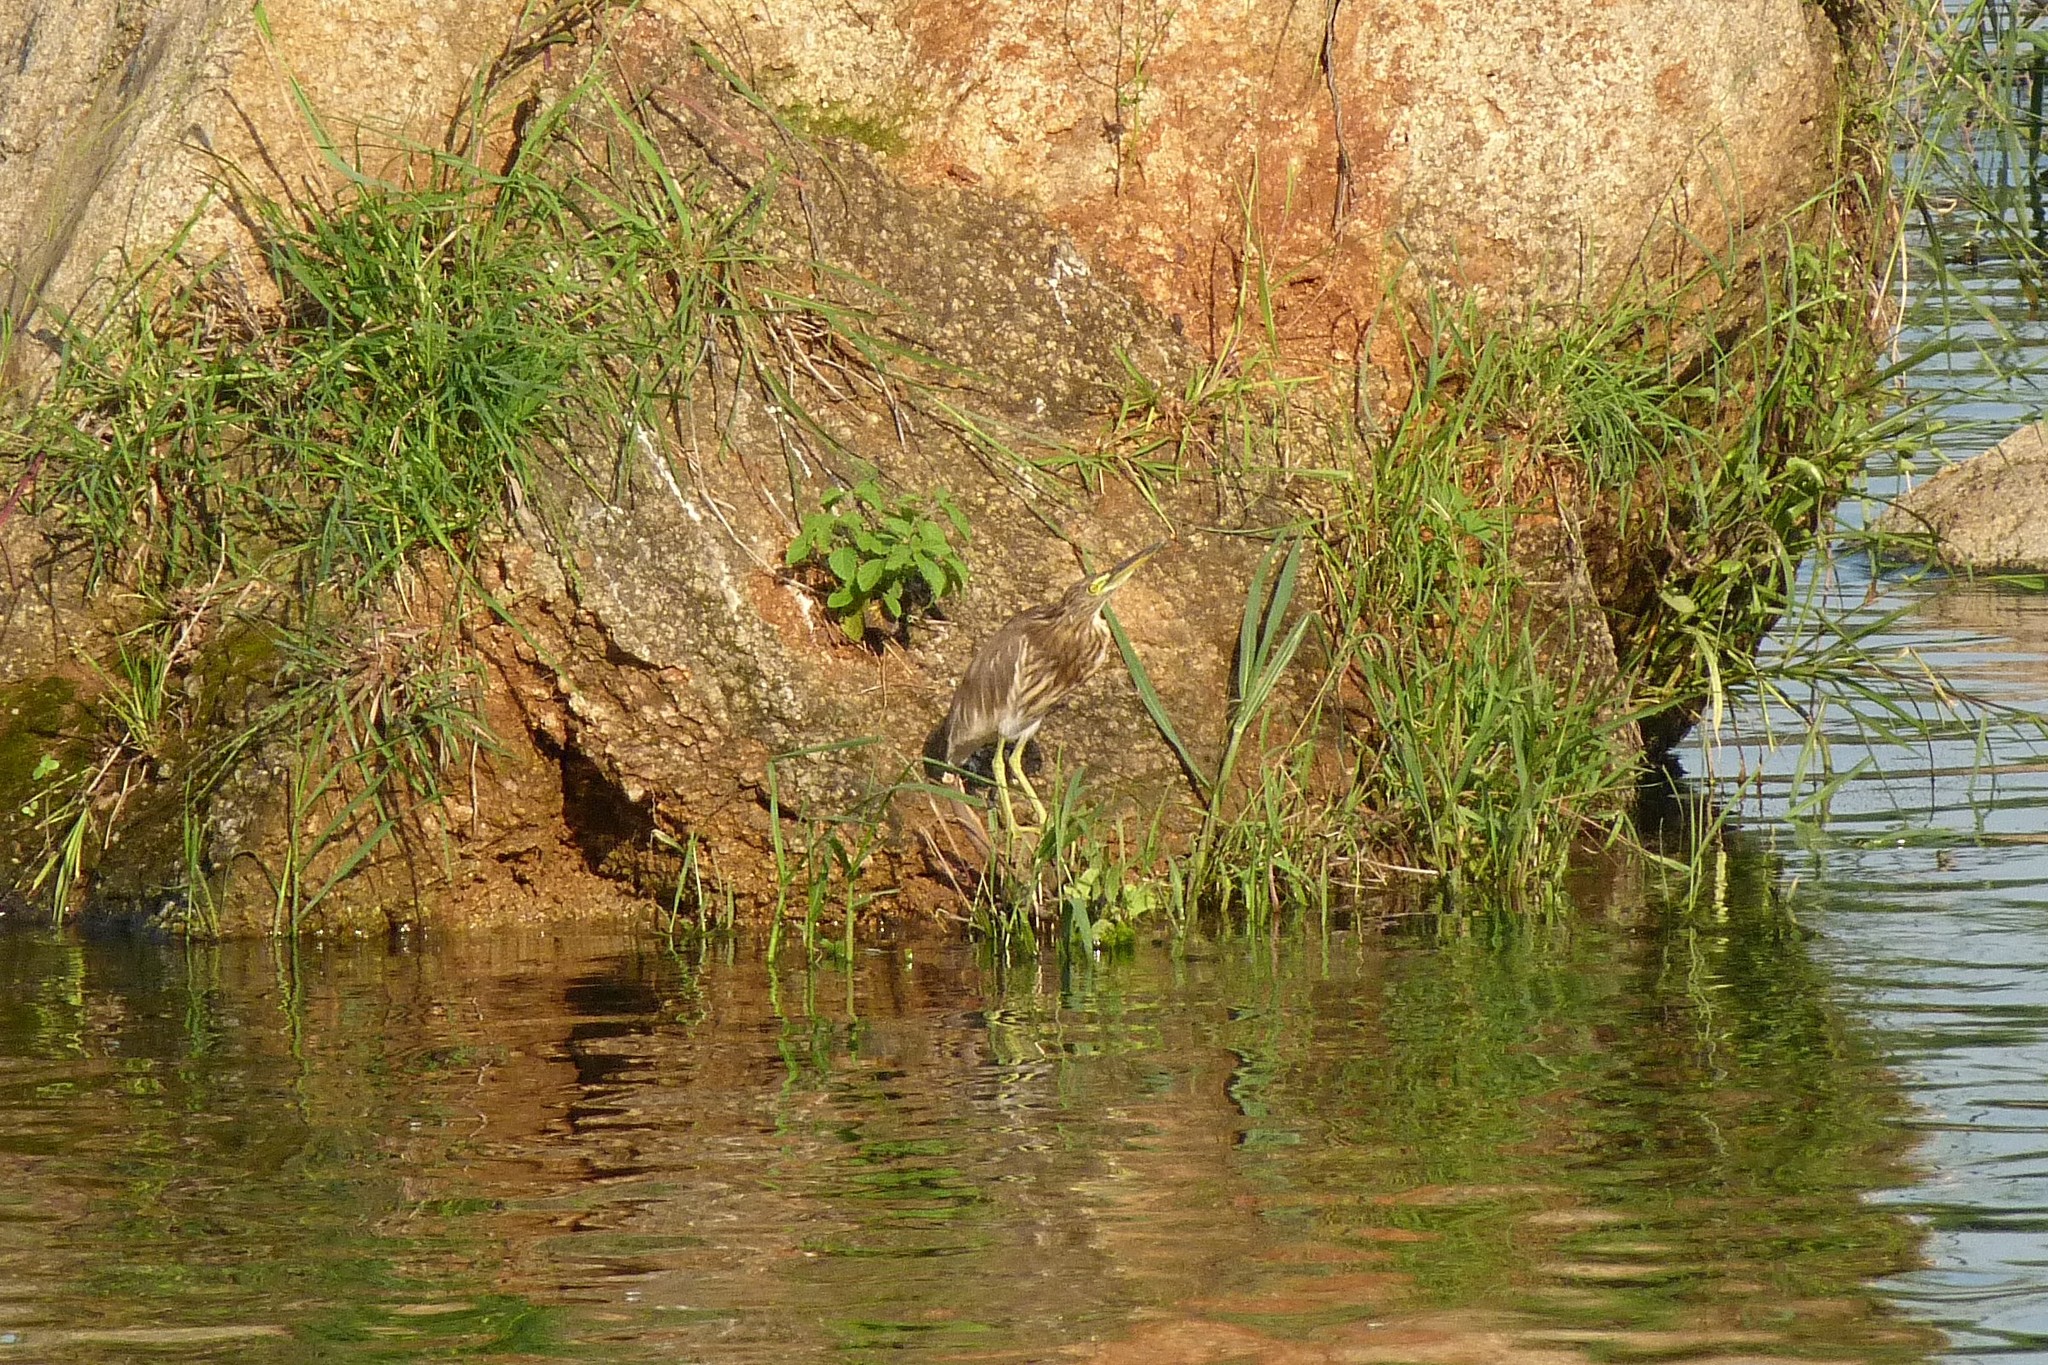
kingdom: Animalia
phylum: Chordata
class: Aves
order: Pelecaniformes
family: Ardeidae
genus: Ardeola
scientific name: Ardeola grayii
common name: Indian pond heron
